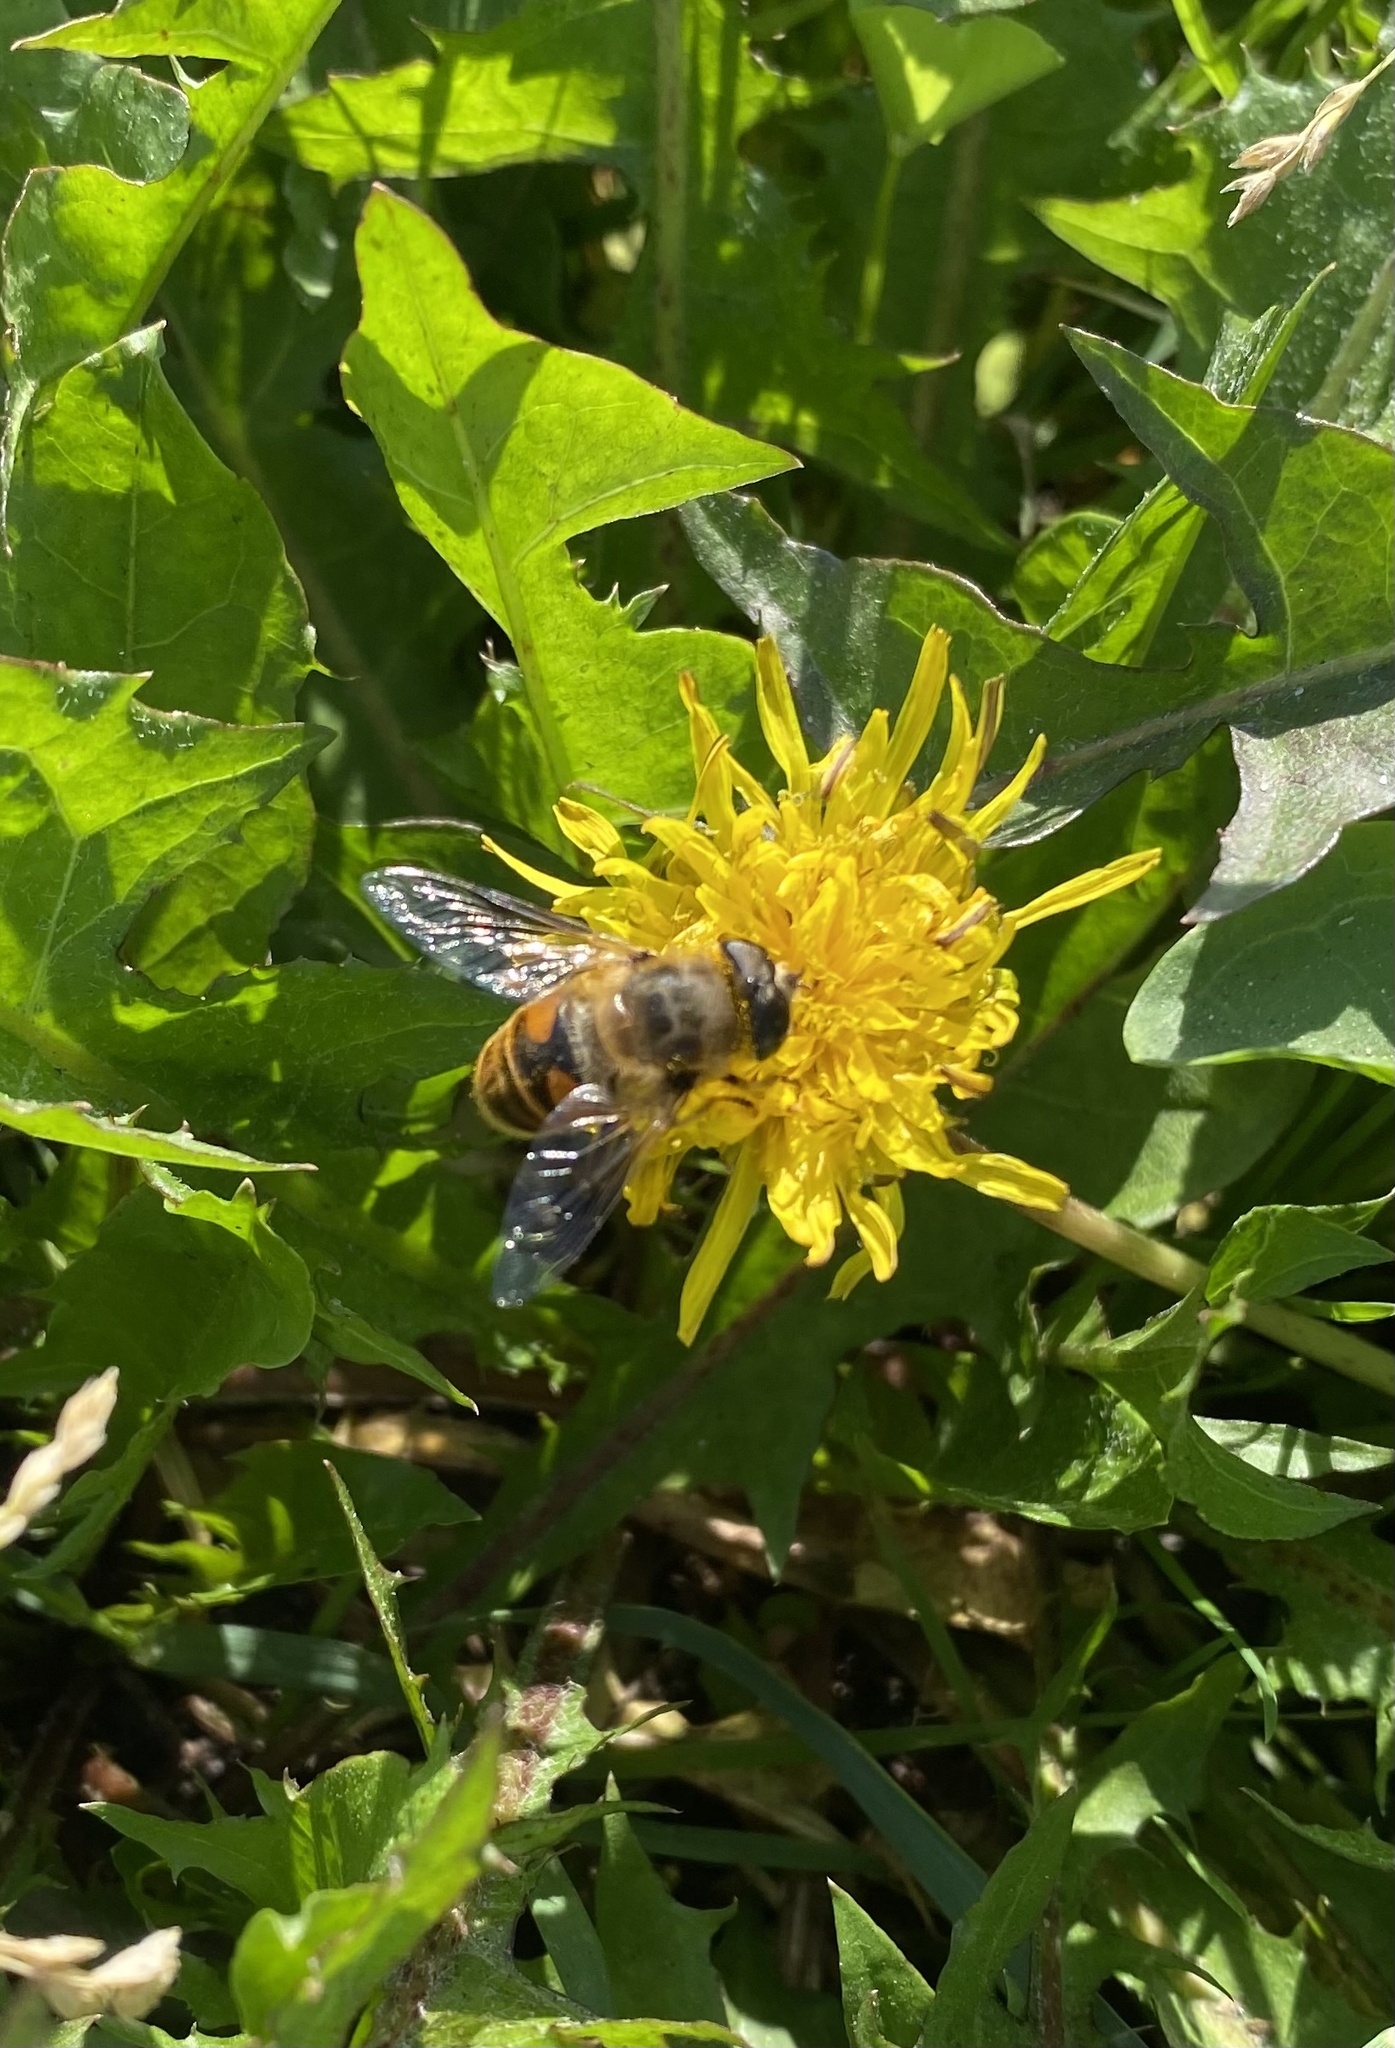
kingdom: Animalia
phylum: Arthropoda
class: Insecta
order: Diptera
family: Syrphidae
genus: Eristalis
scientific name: Eristalis tenax
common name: Drone fly
